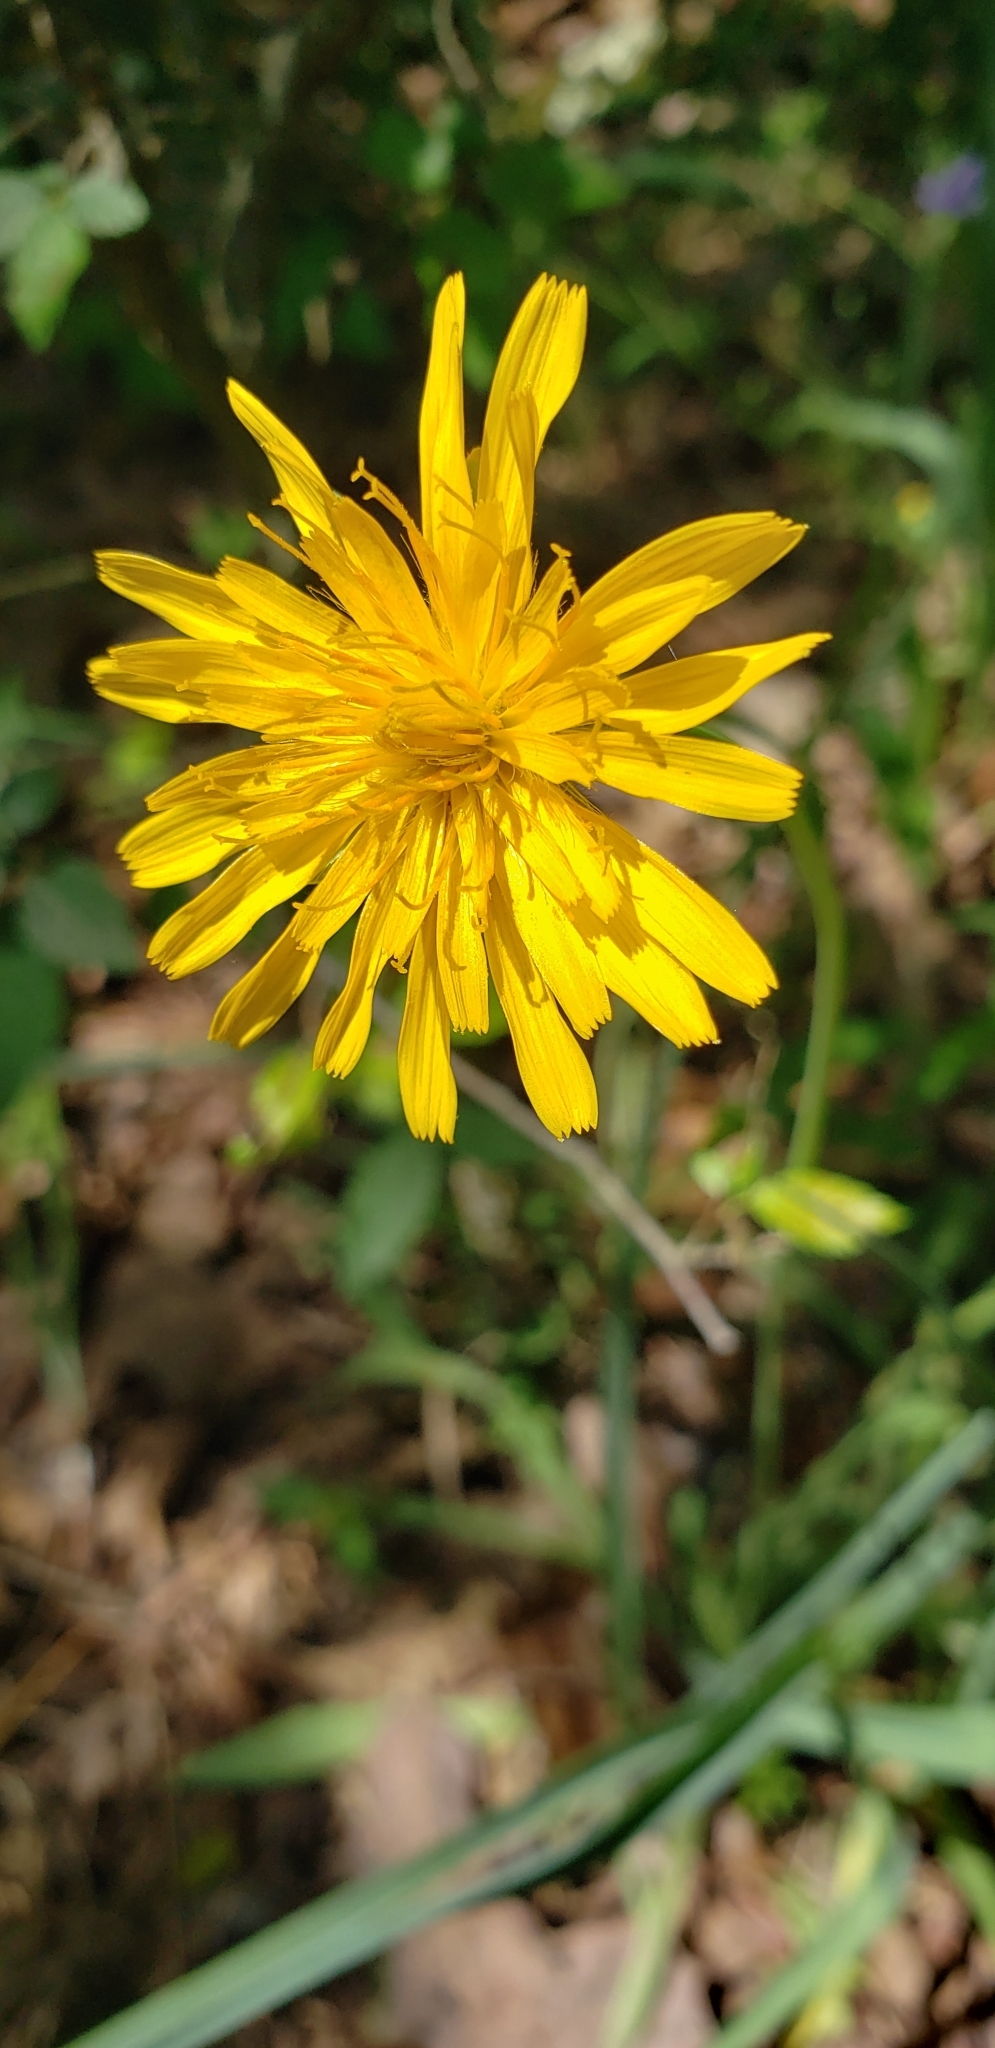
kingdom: Plantae
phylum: Tracheophyta
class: Magnoliopsida
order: Asterales
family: Asteraceae
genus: Krigia
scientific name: Krigia dandelion
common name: Colonial dwarf-dandelion
